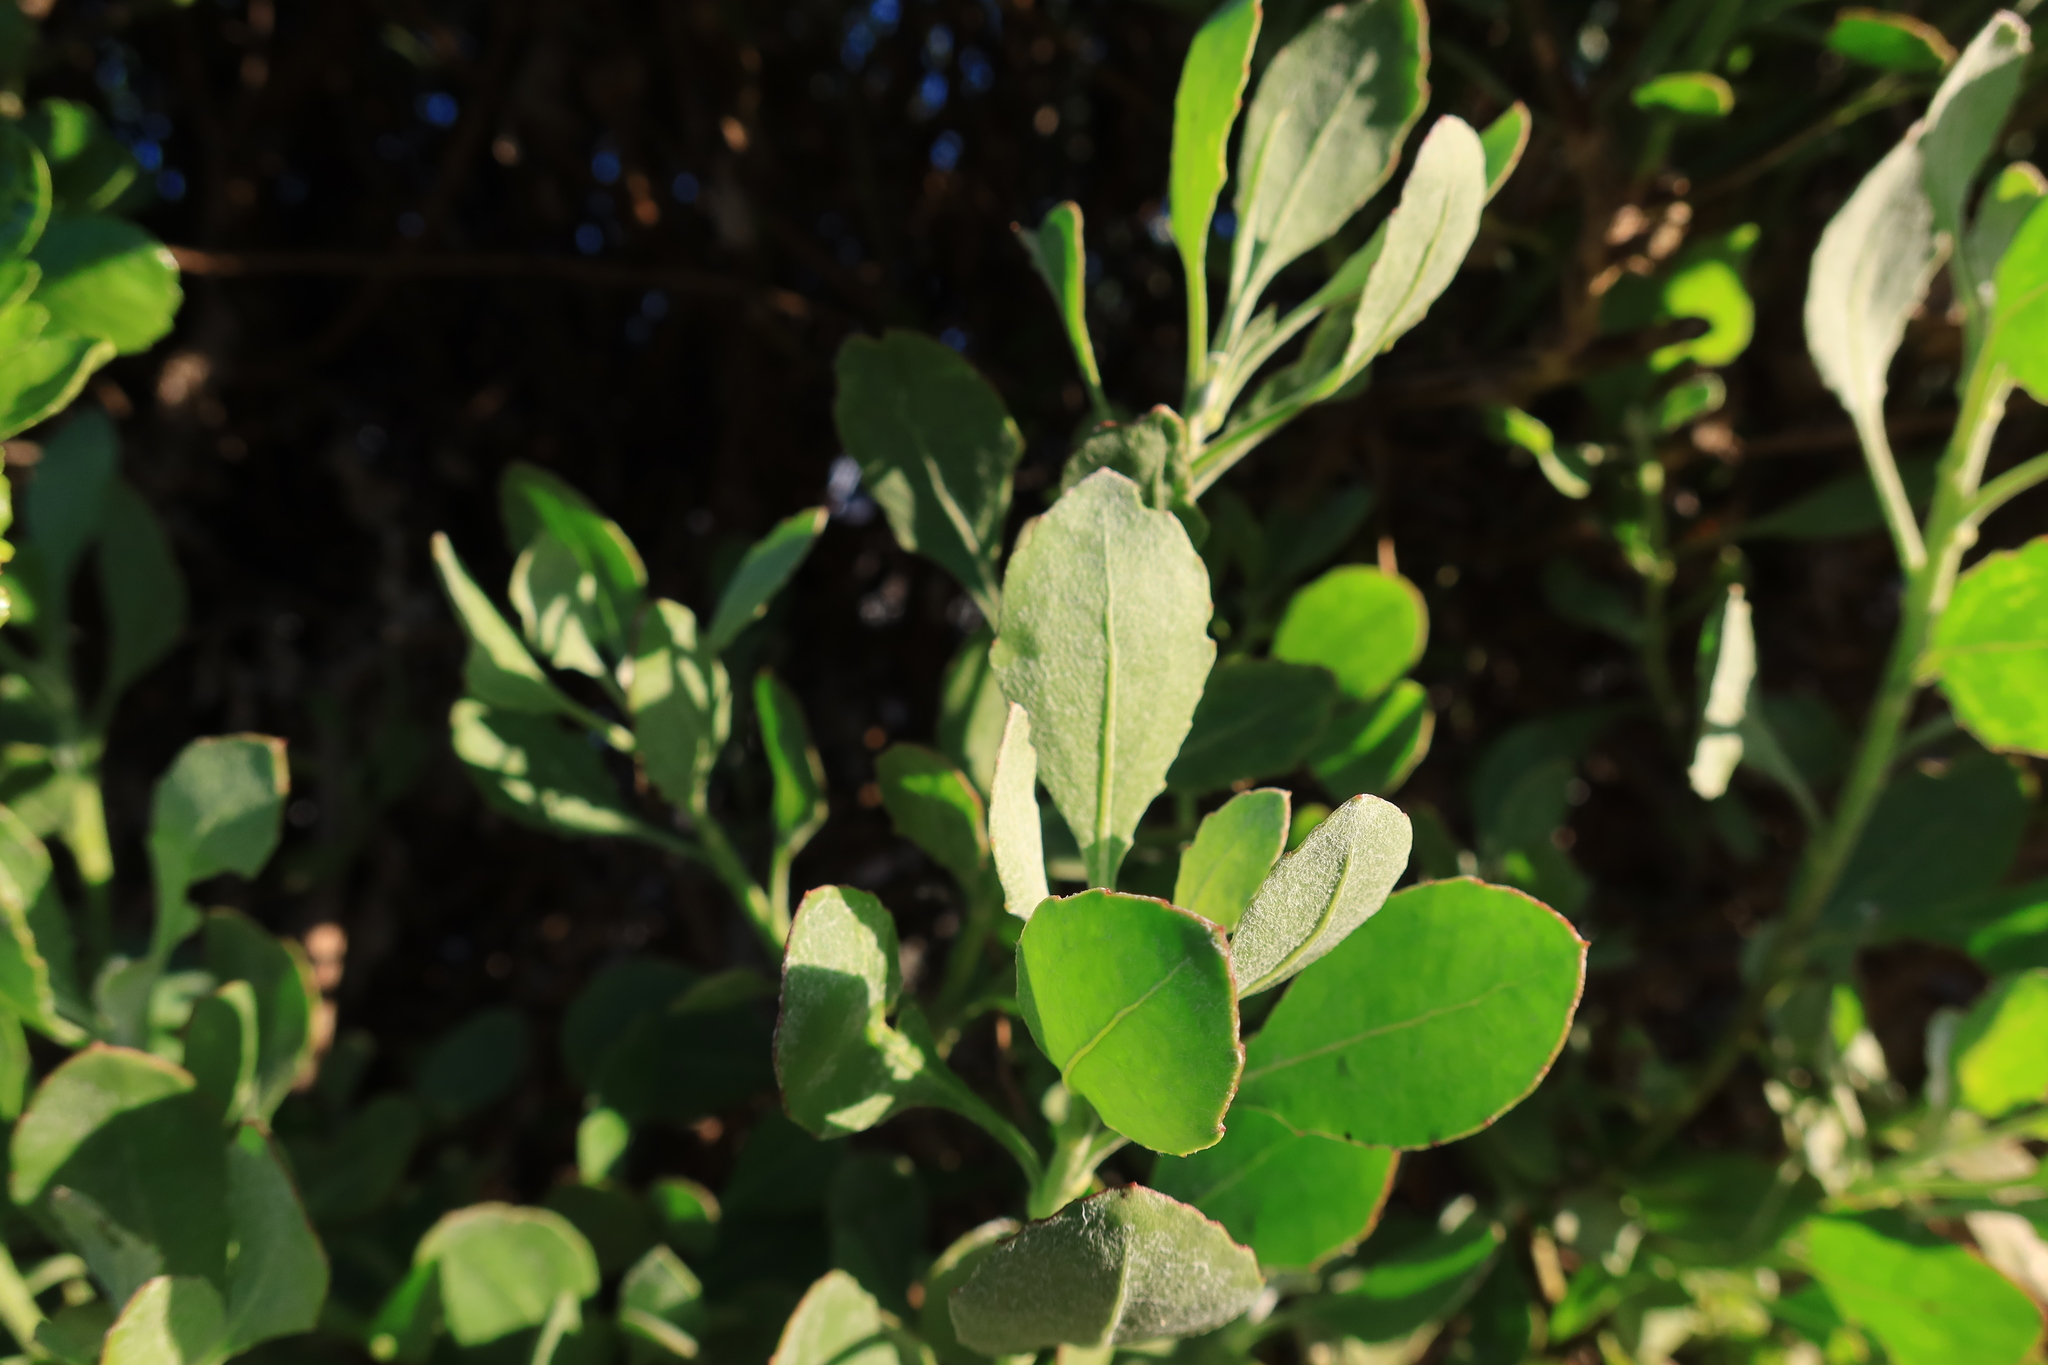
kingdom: Plantae
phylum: Tracheophyta
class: Magnoliopsida
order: Asterales
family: Asteraceae
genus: Osteospermum
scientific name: Osteospermum moniliferum
